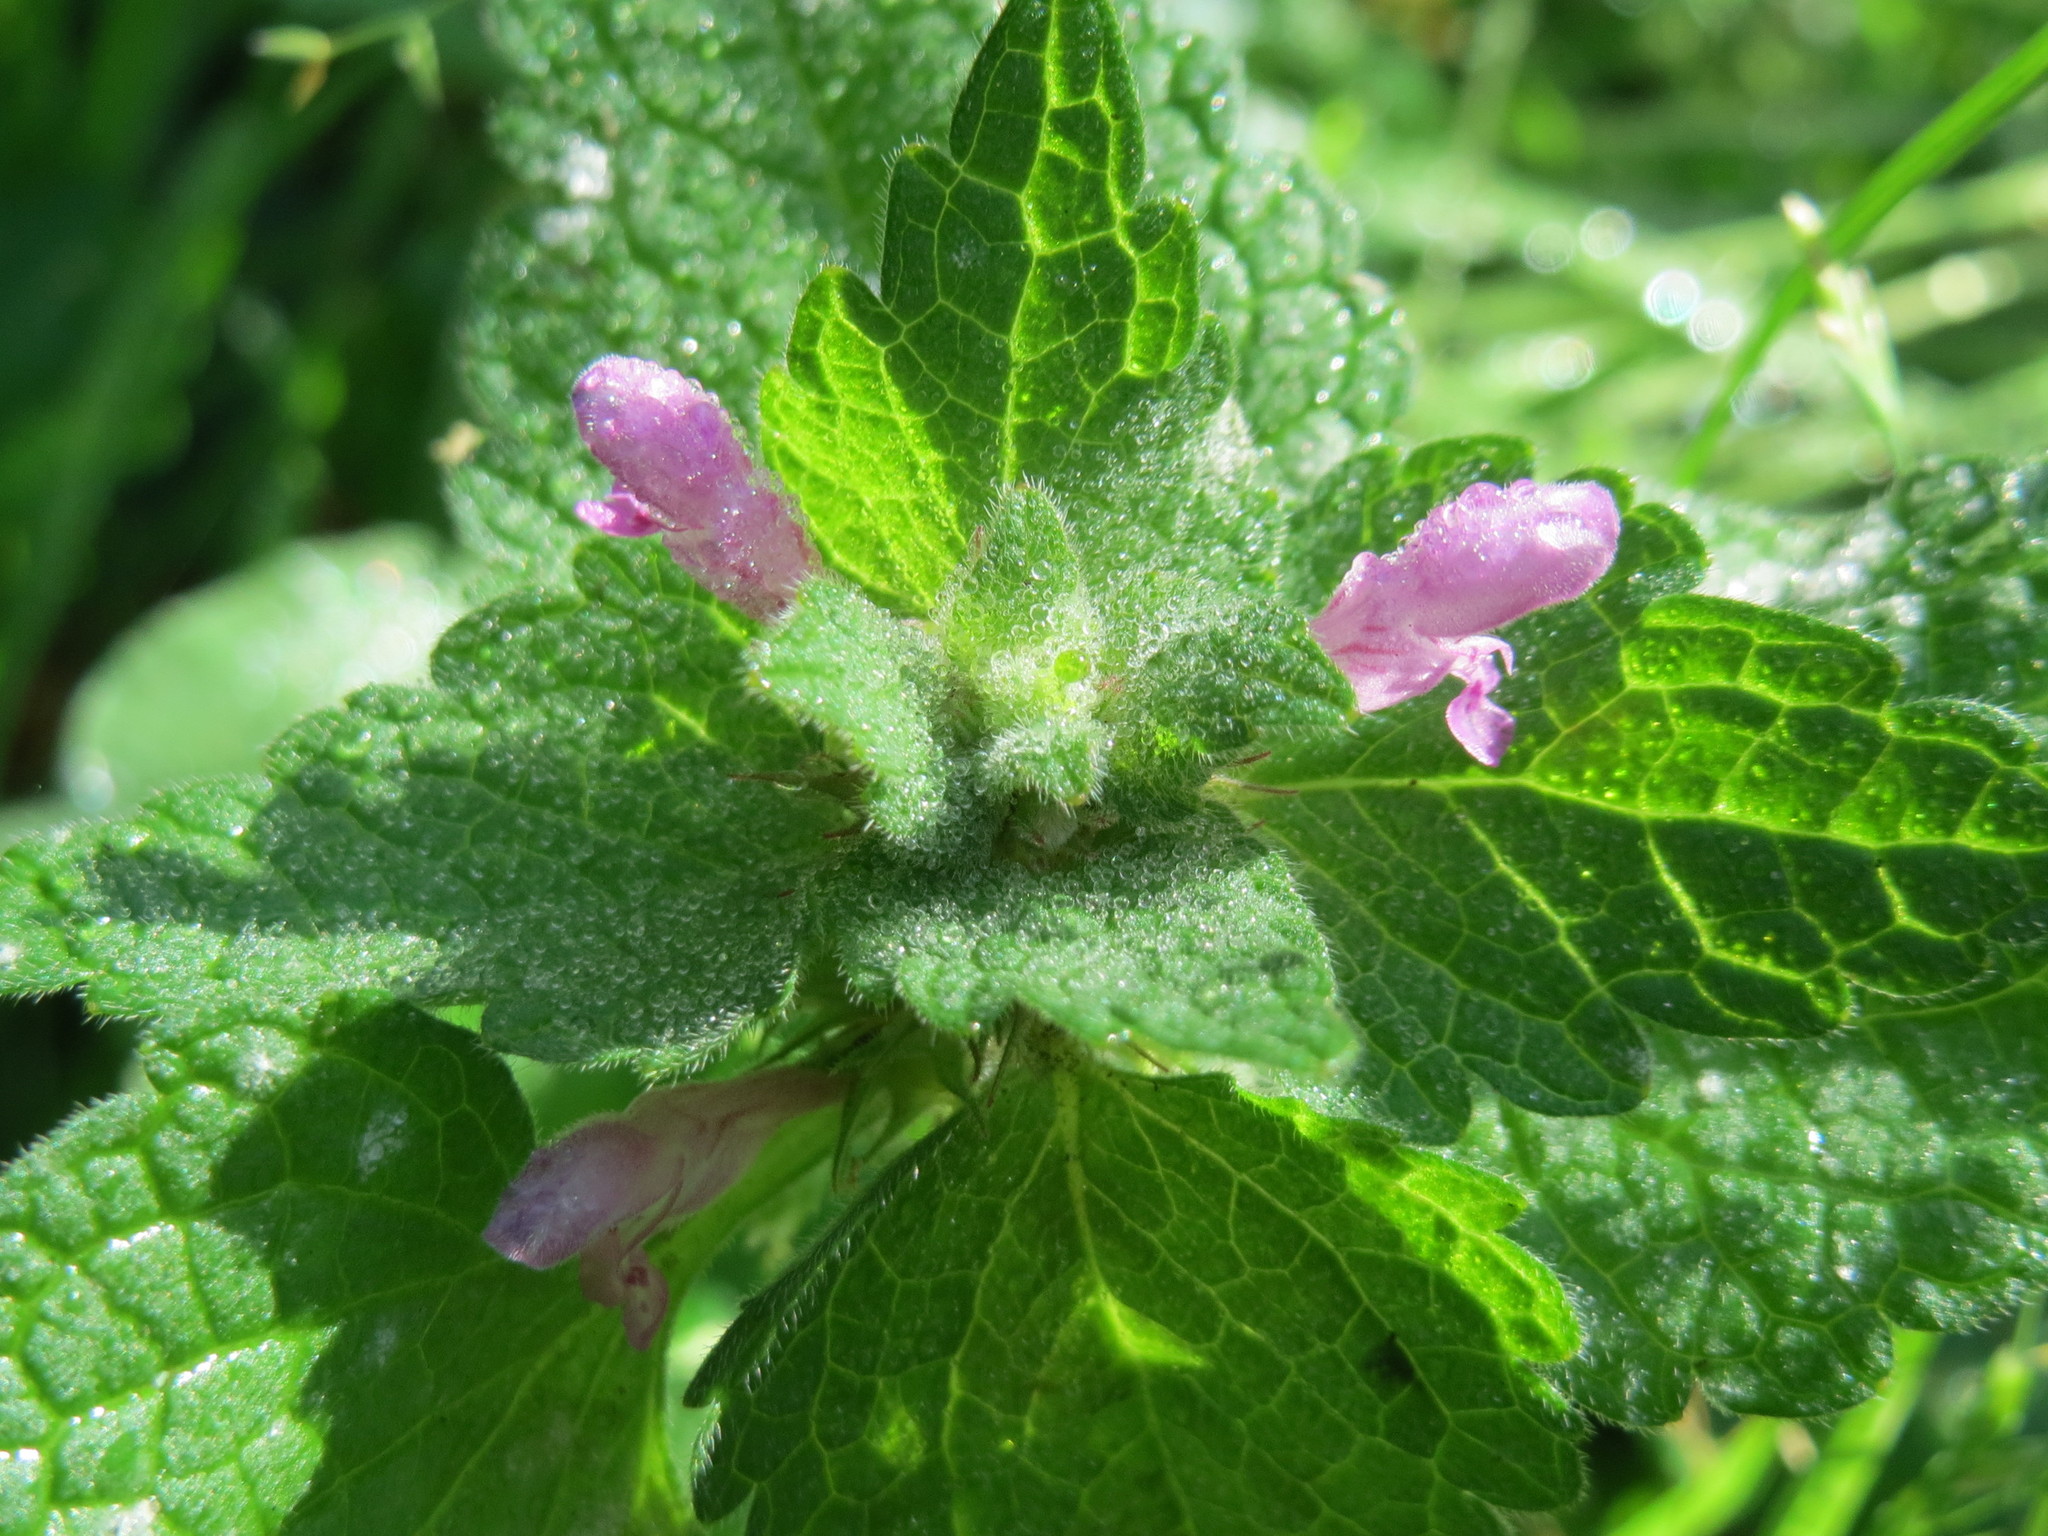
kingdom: Plantae
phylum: Tracheophyta
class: Magnoliopsida
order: Lamiales
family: Lamiaceae
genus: Lamium
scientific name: Lamium purpureum
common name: Red dead-nettle
